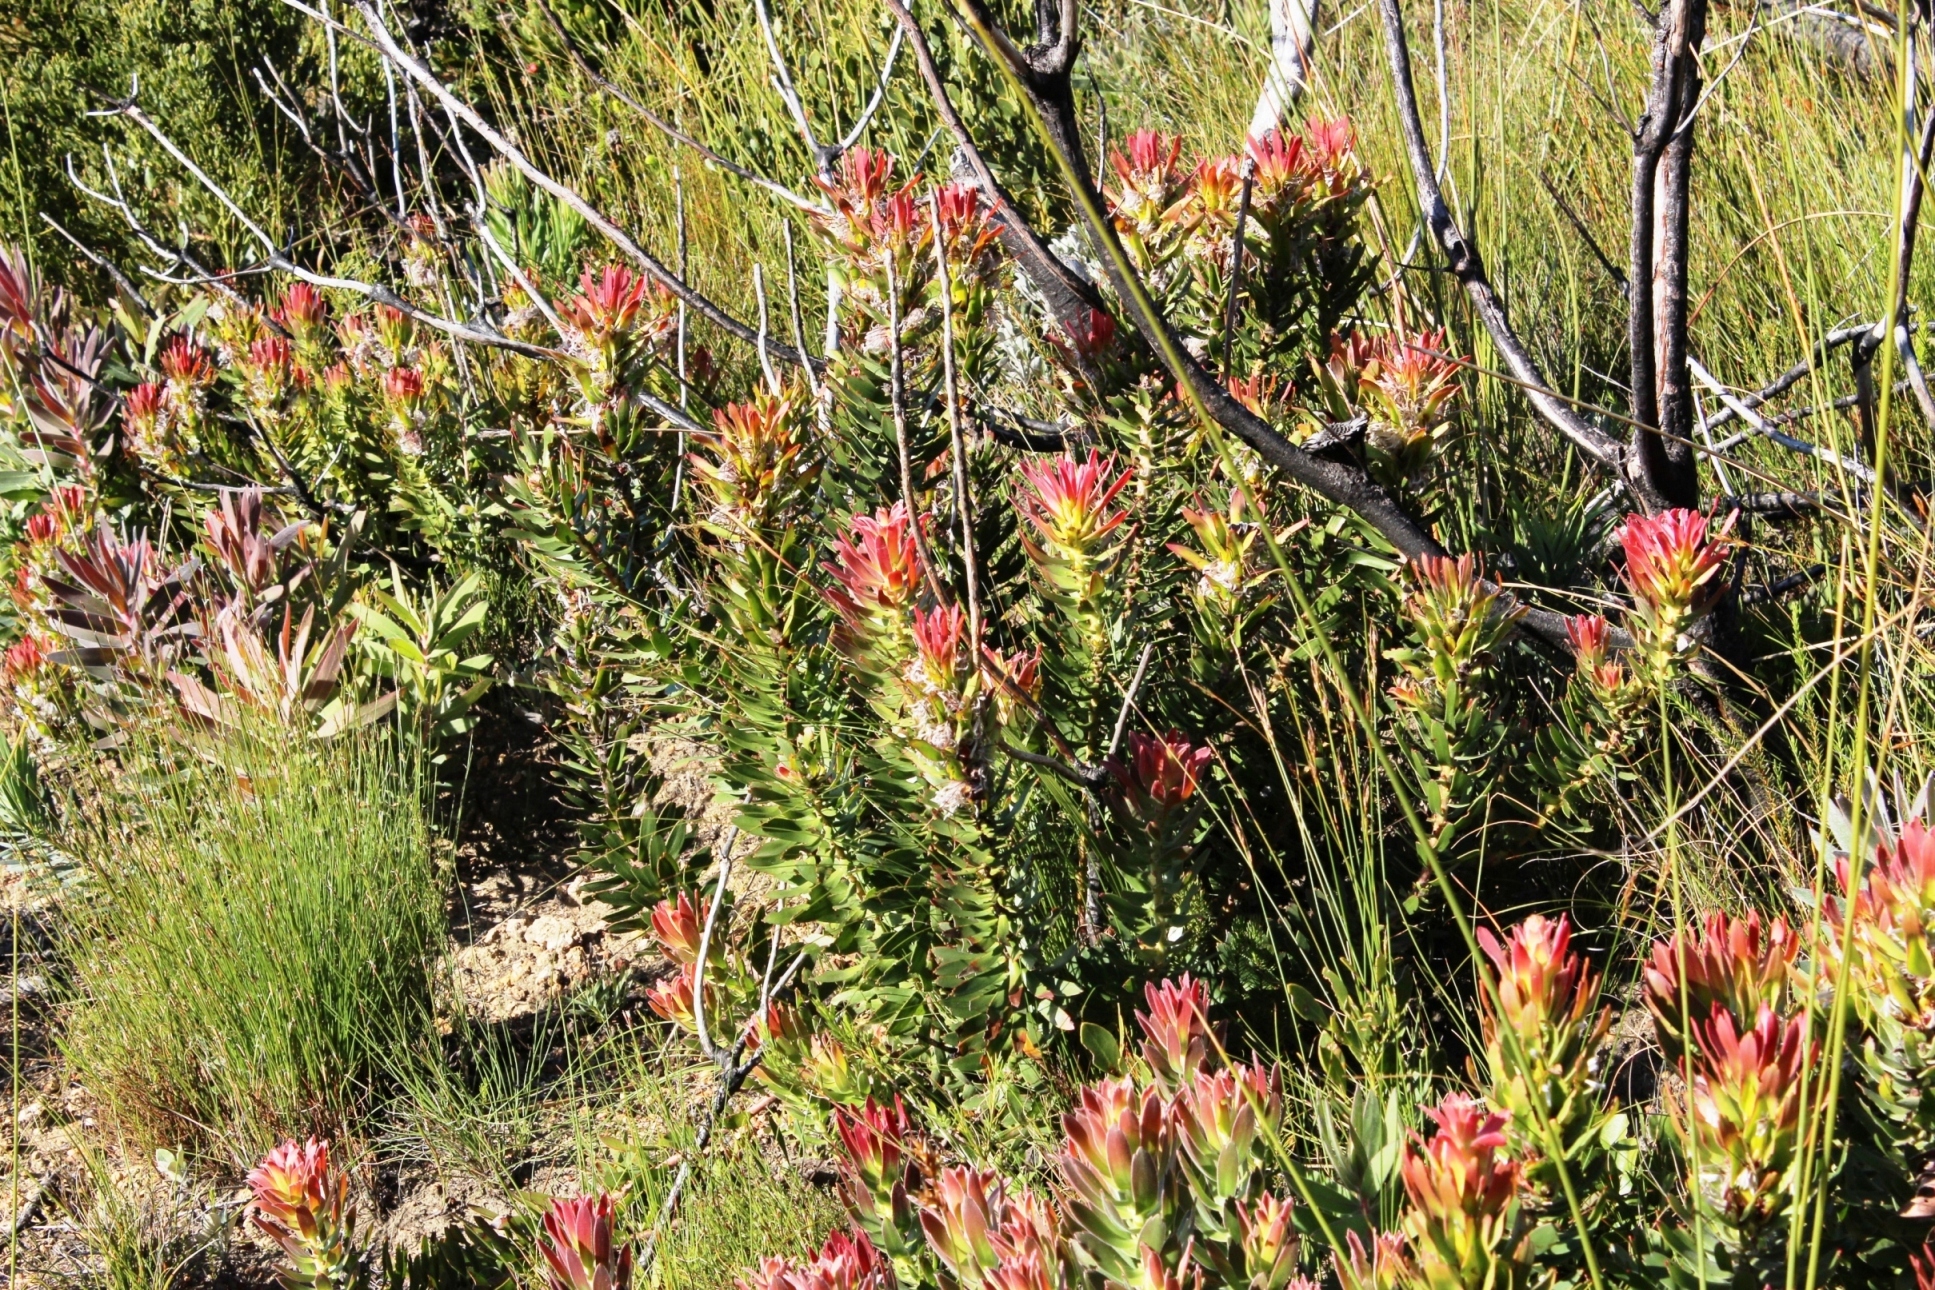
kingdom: Plantae
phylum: Tracheophyta
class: Magnoliopsida
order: Proteales
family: Proteaceae
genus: Mimetes
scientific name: Mimetes cucullatus
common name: Common pagoda
